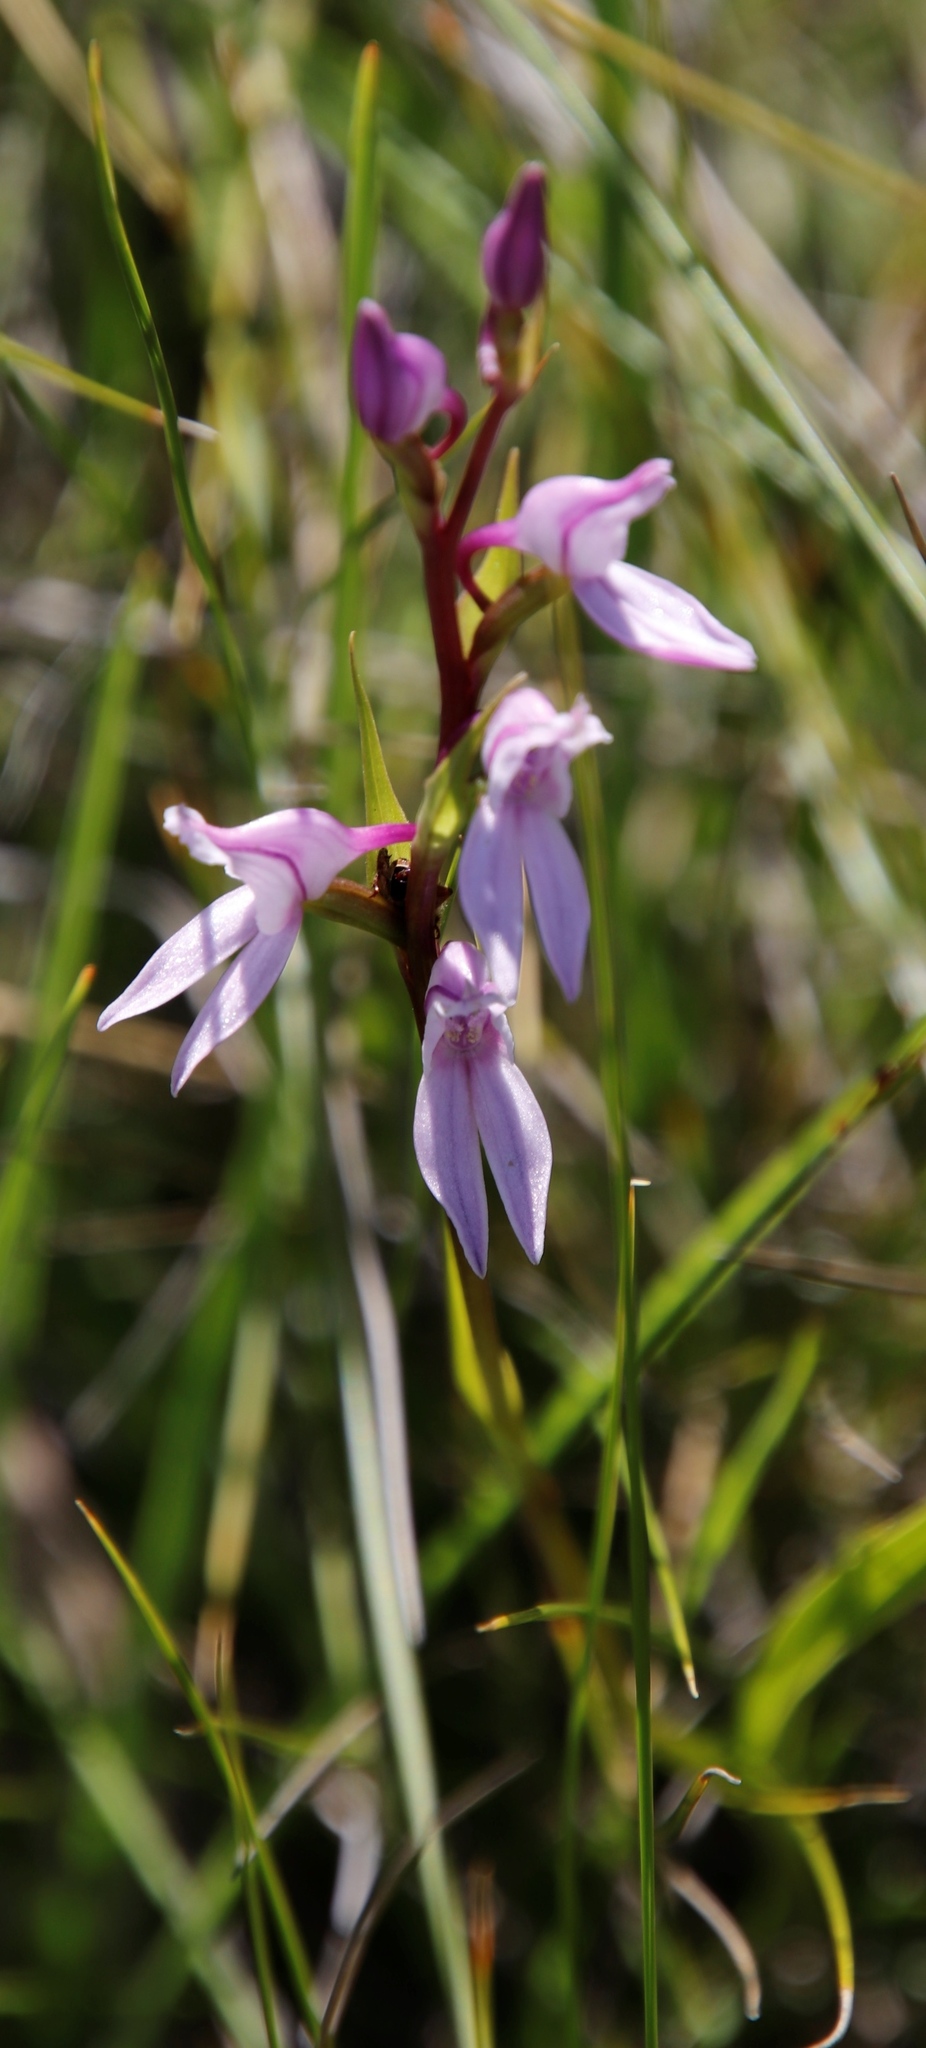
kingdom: Plantae
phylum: Tracheophyta
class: Liliopsida
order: Asparagales
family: Orchidaceae
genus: Brownleea
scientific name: Brownleea recurvata
